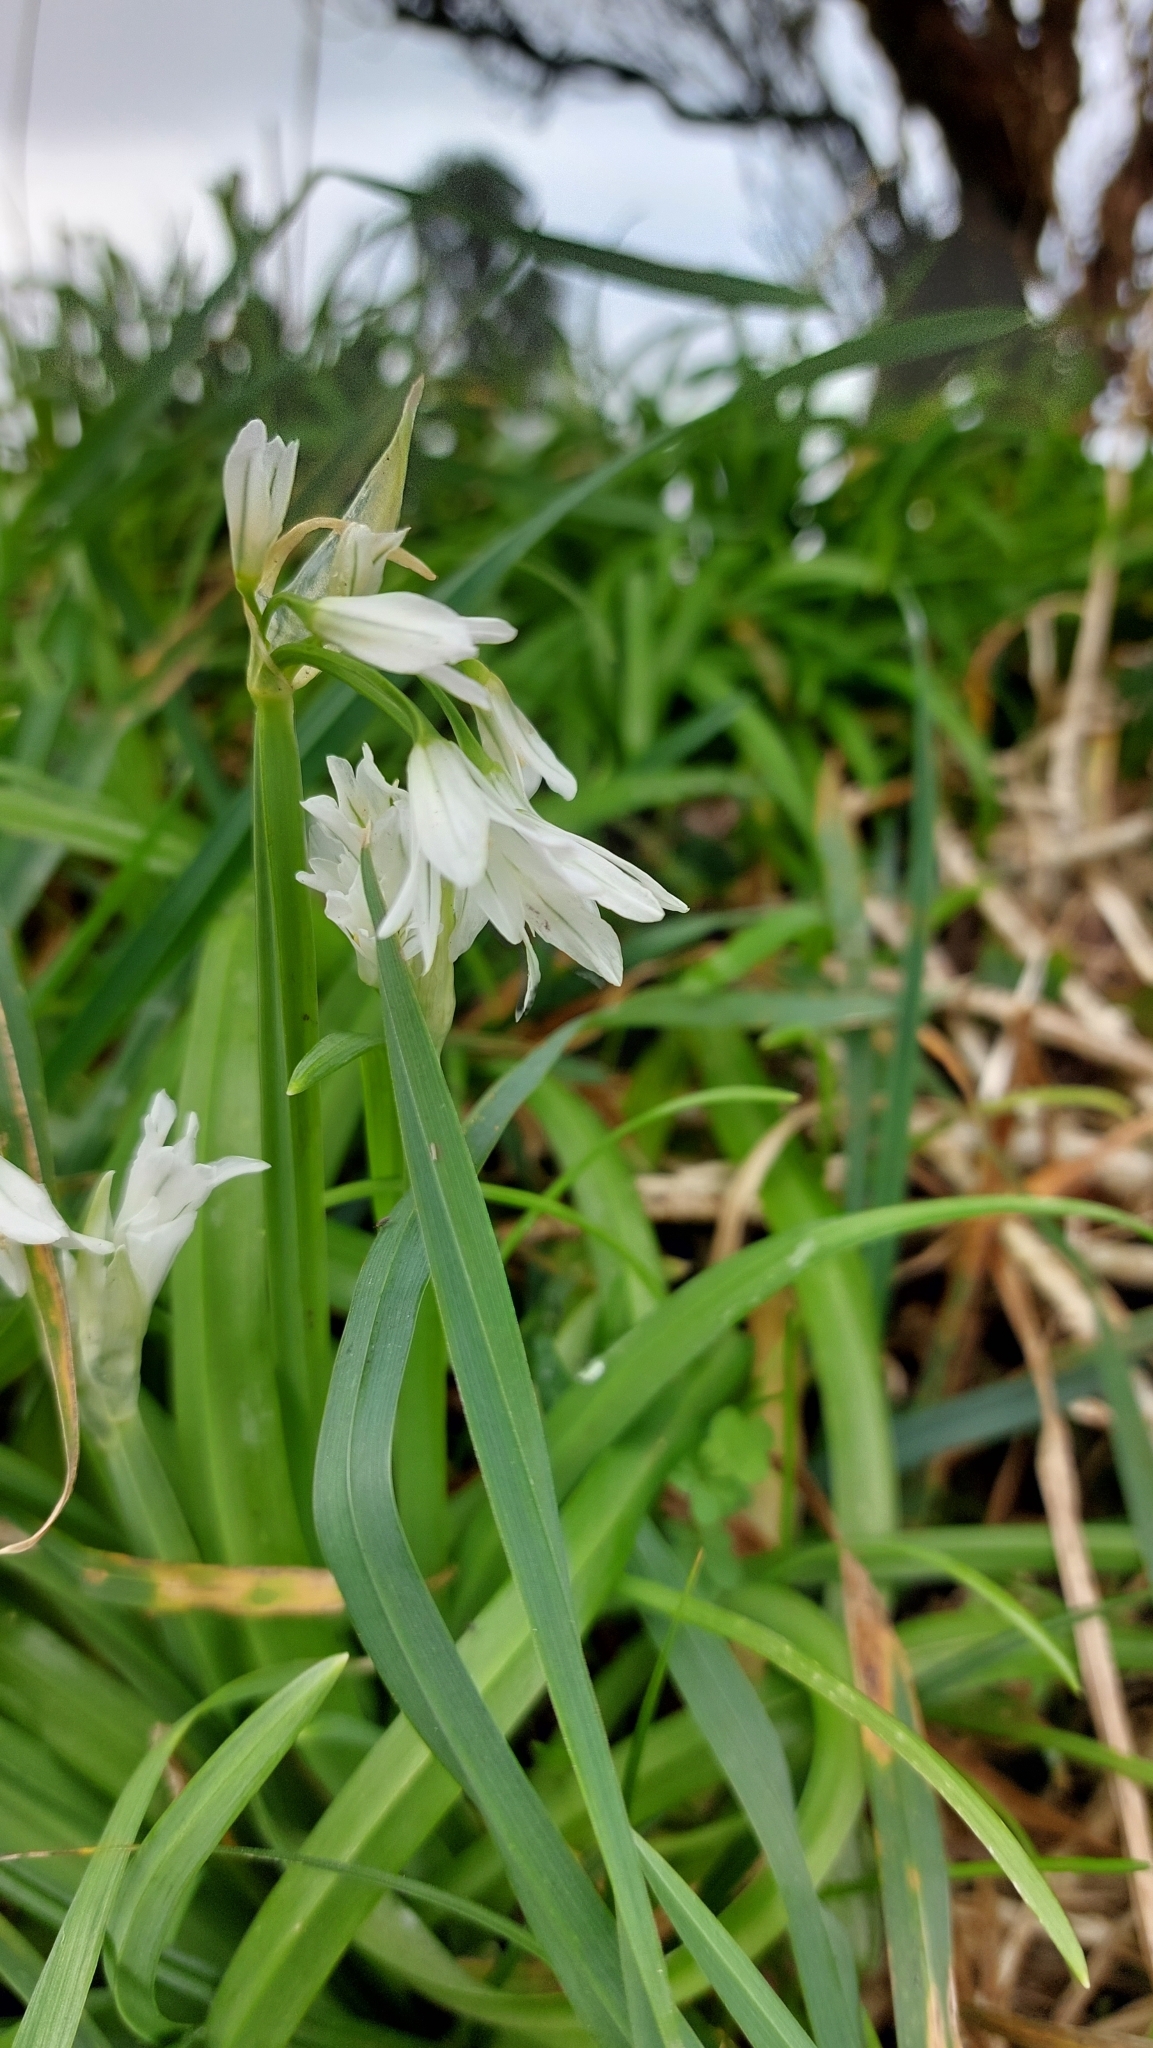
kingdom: Plantae
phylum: Tracheophyta
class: Liliopsida
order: Asparagales
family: Amaryllidaceae
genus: Allium
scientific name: Allium triquetrum
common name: Three-cornered garlic
